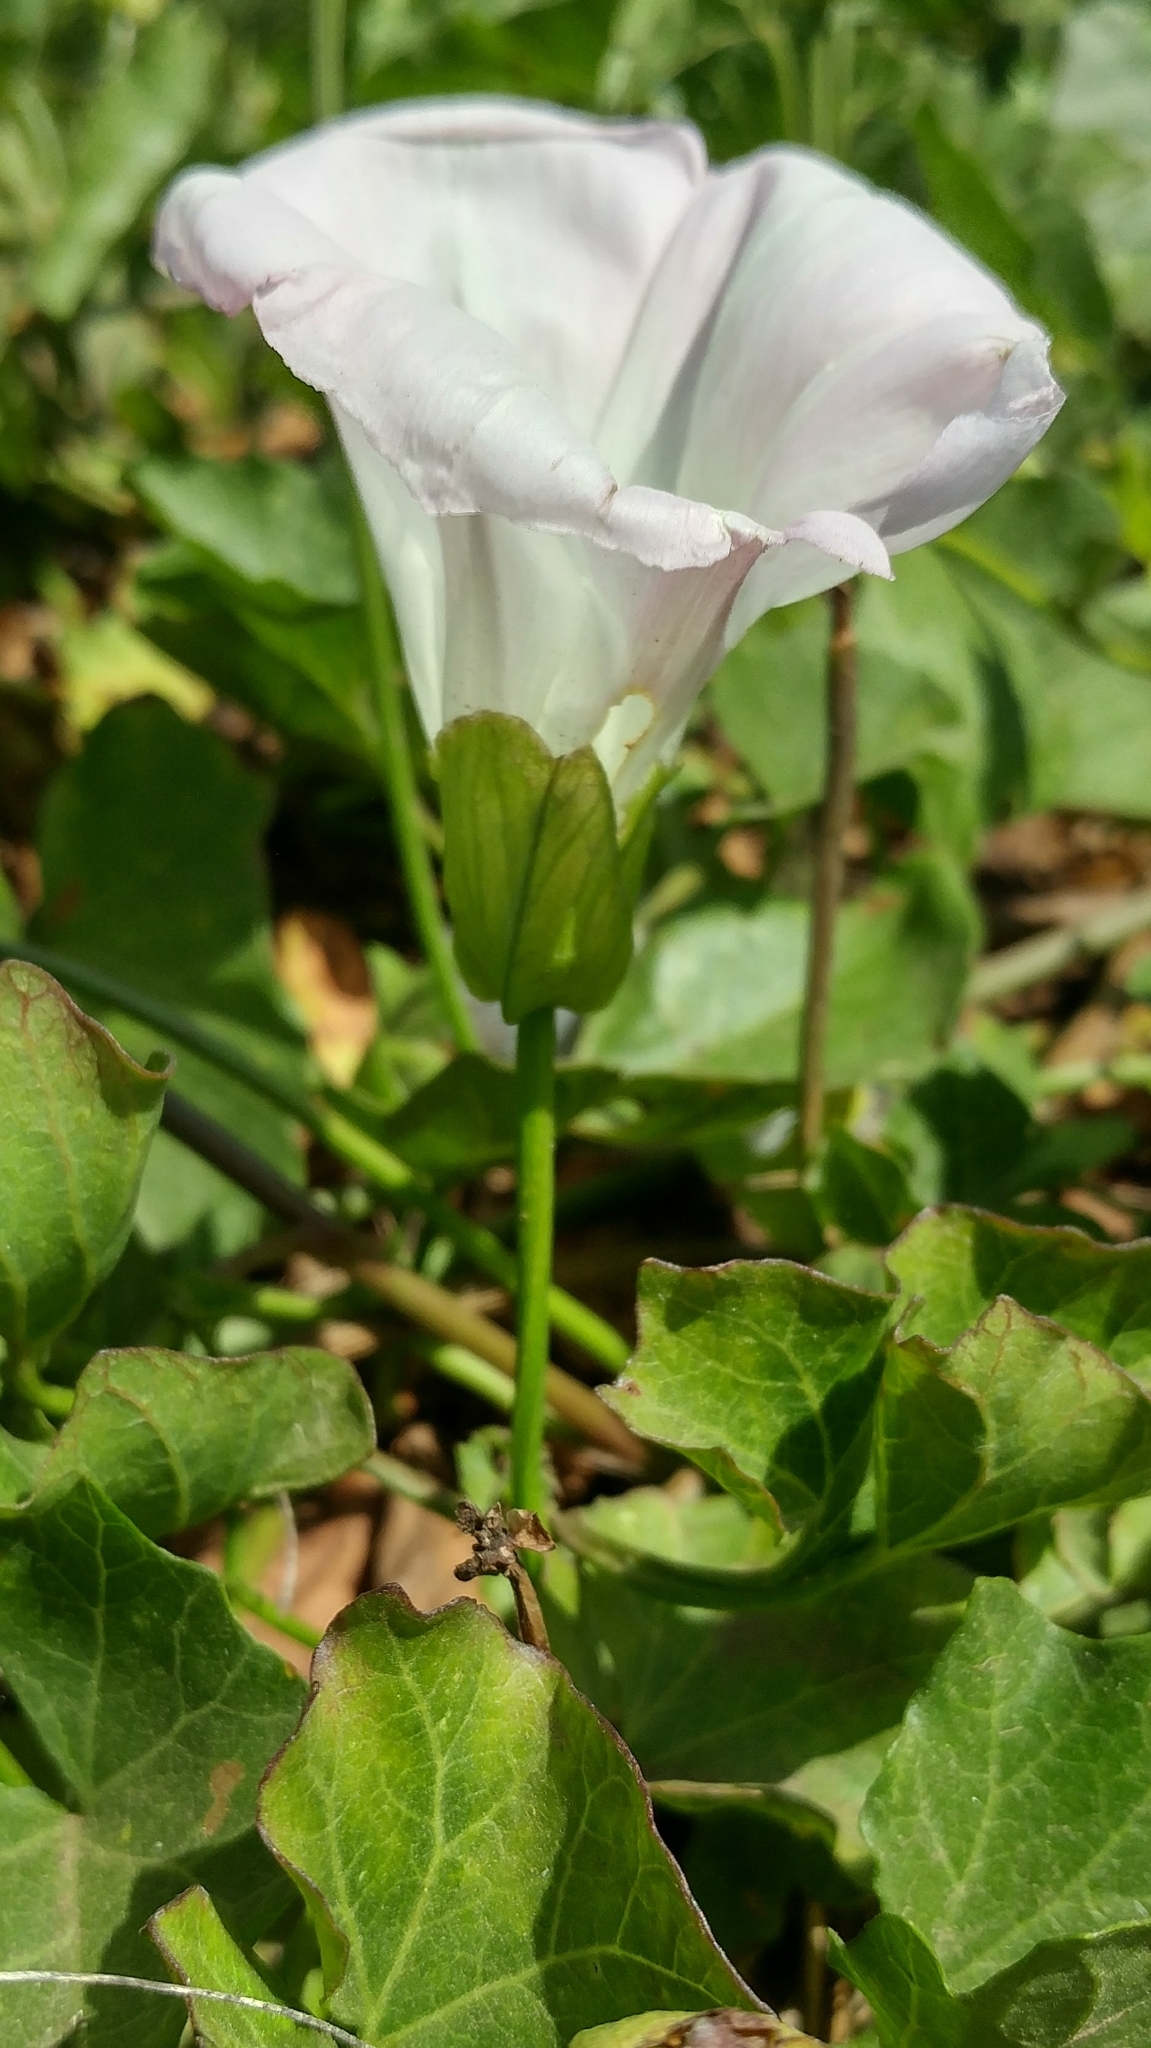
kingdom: Plantae
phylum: Tracheophyta
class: Magnoliopsida
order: Solanales
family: Convolvulaceae
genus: Calystegia
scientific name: Calystegia macrostegia
